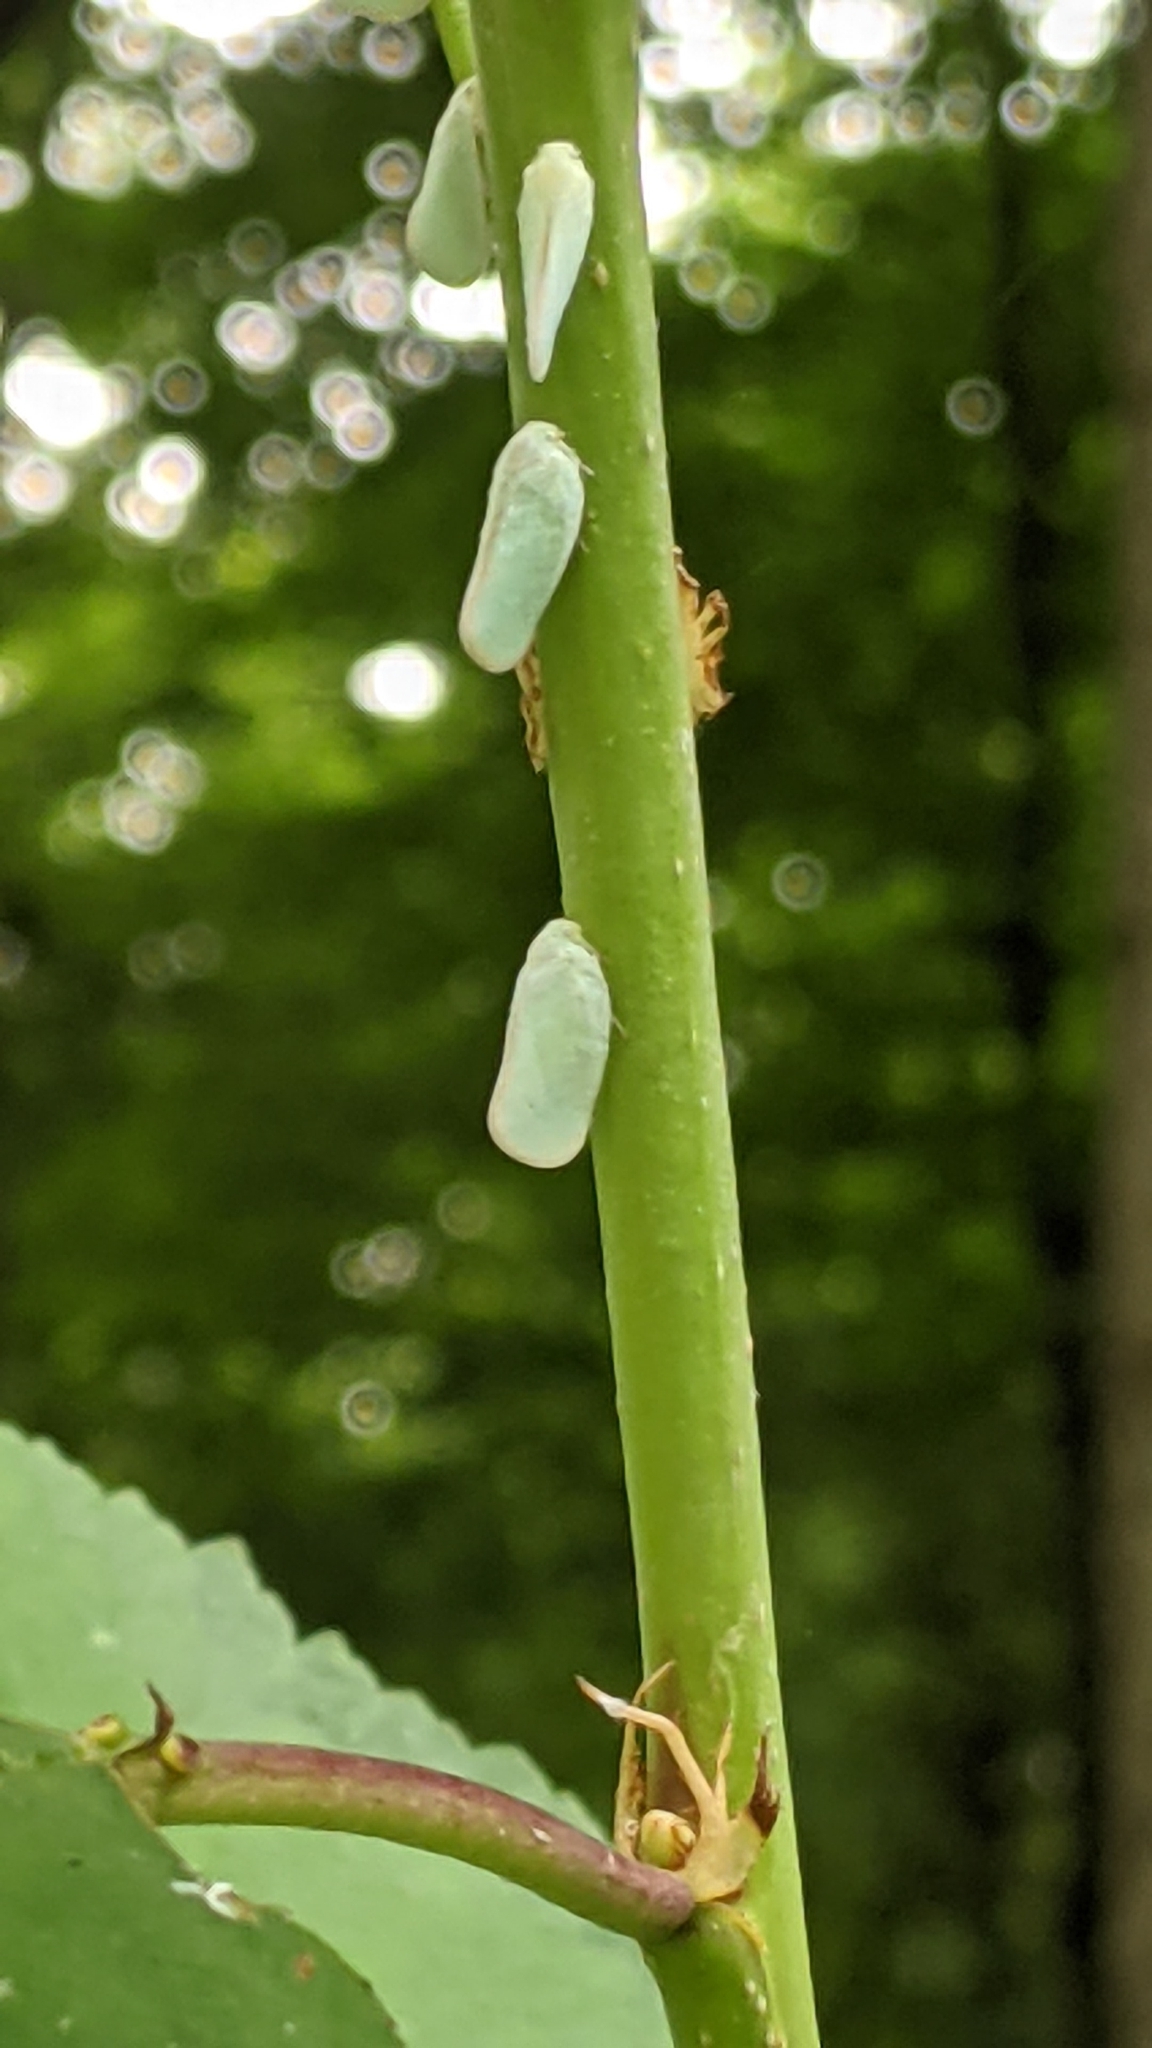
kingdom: Animalia
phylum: Arthropoda
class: Insecta
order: Hemiptera
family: Flatidae
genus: Ormenoides
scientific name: Ormenoides venusta
